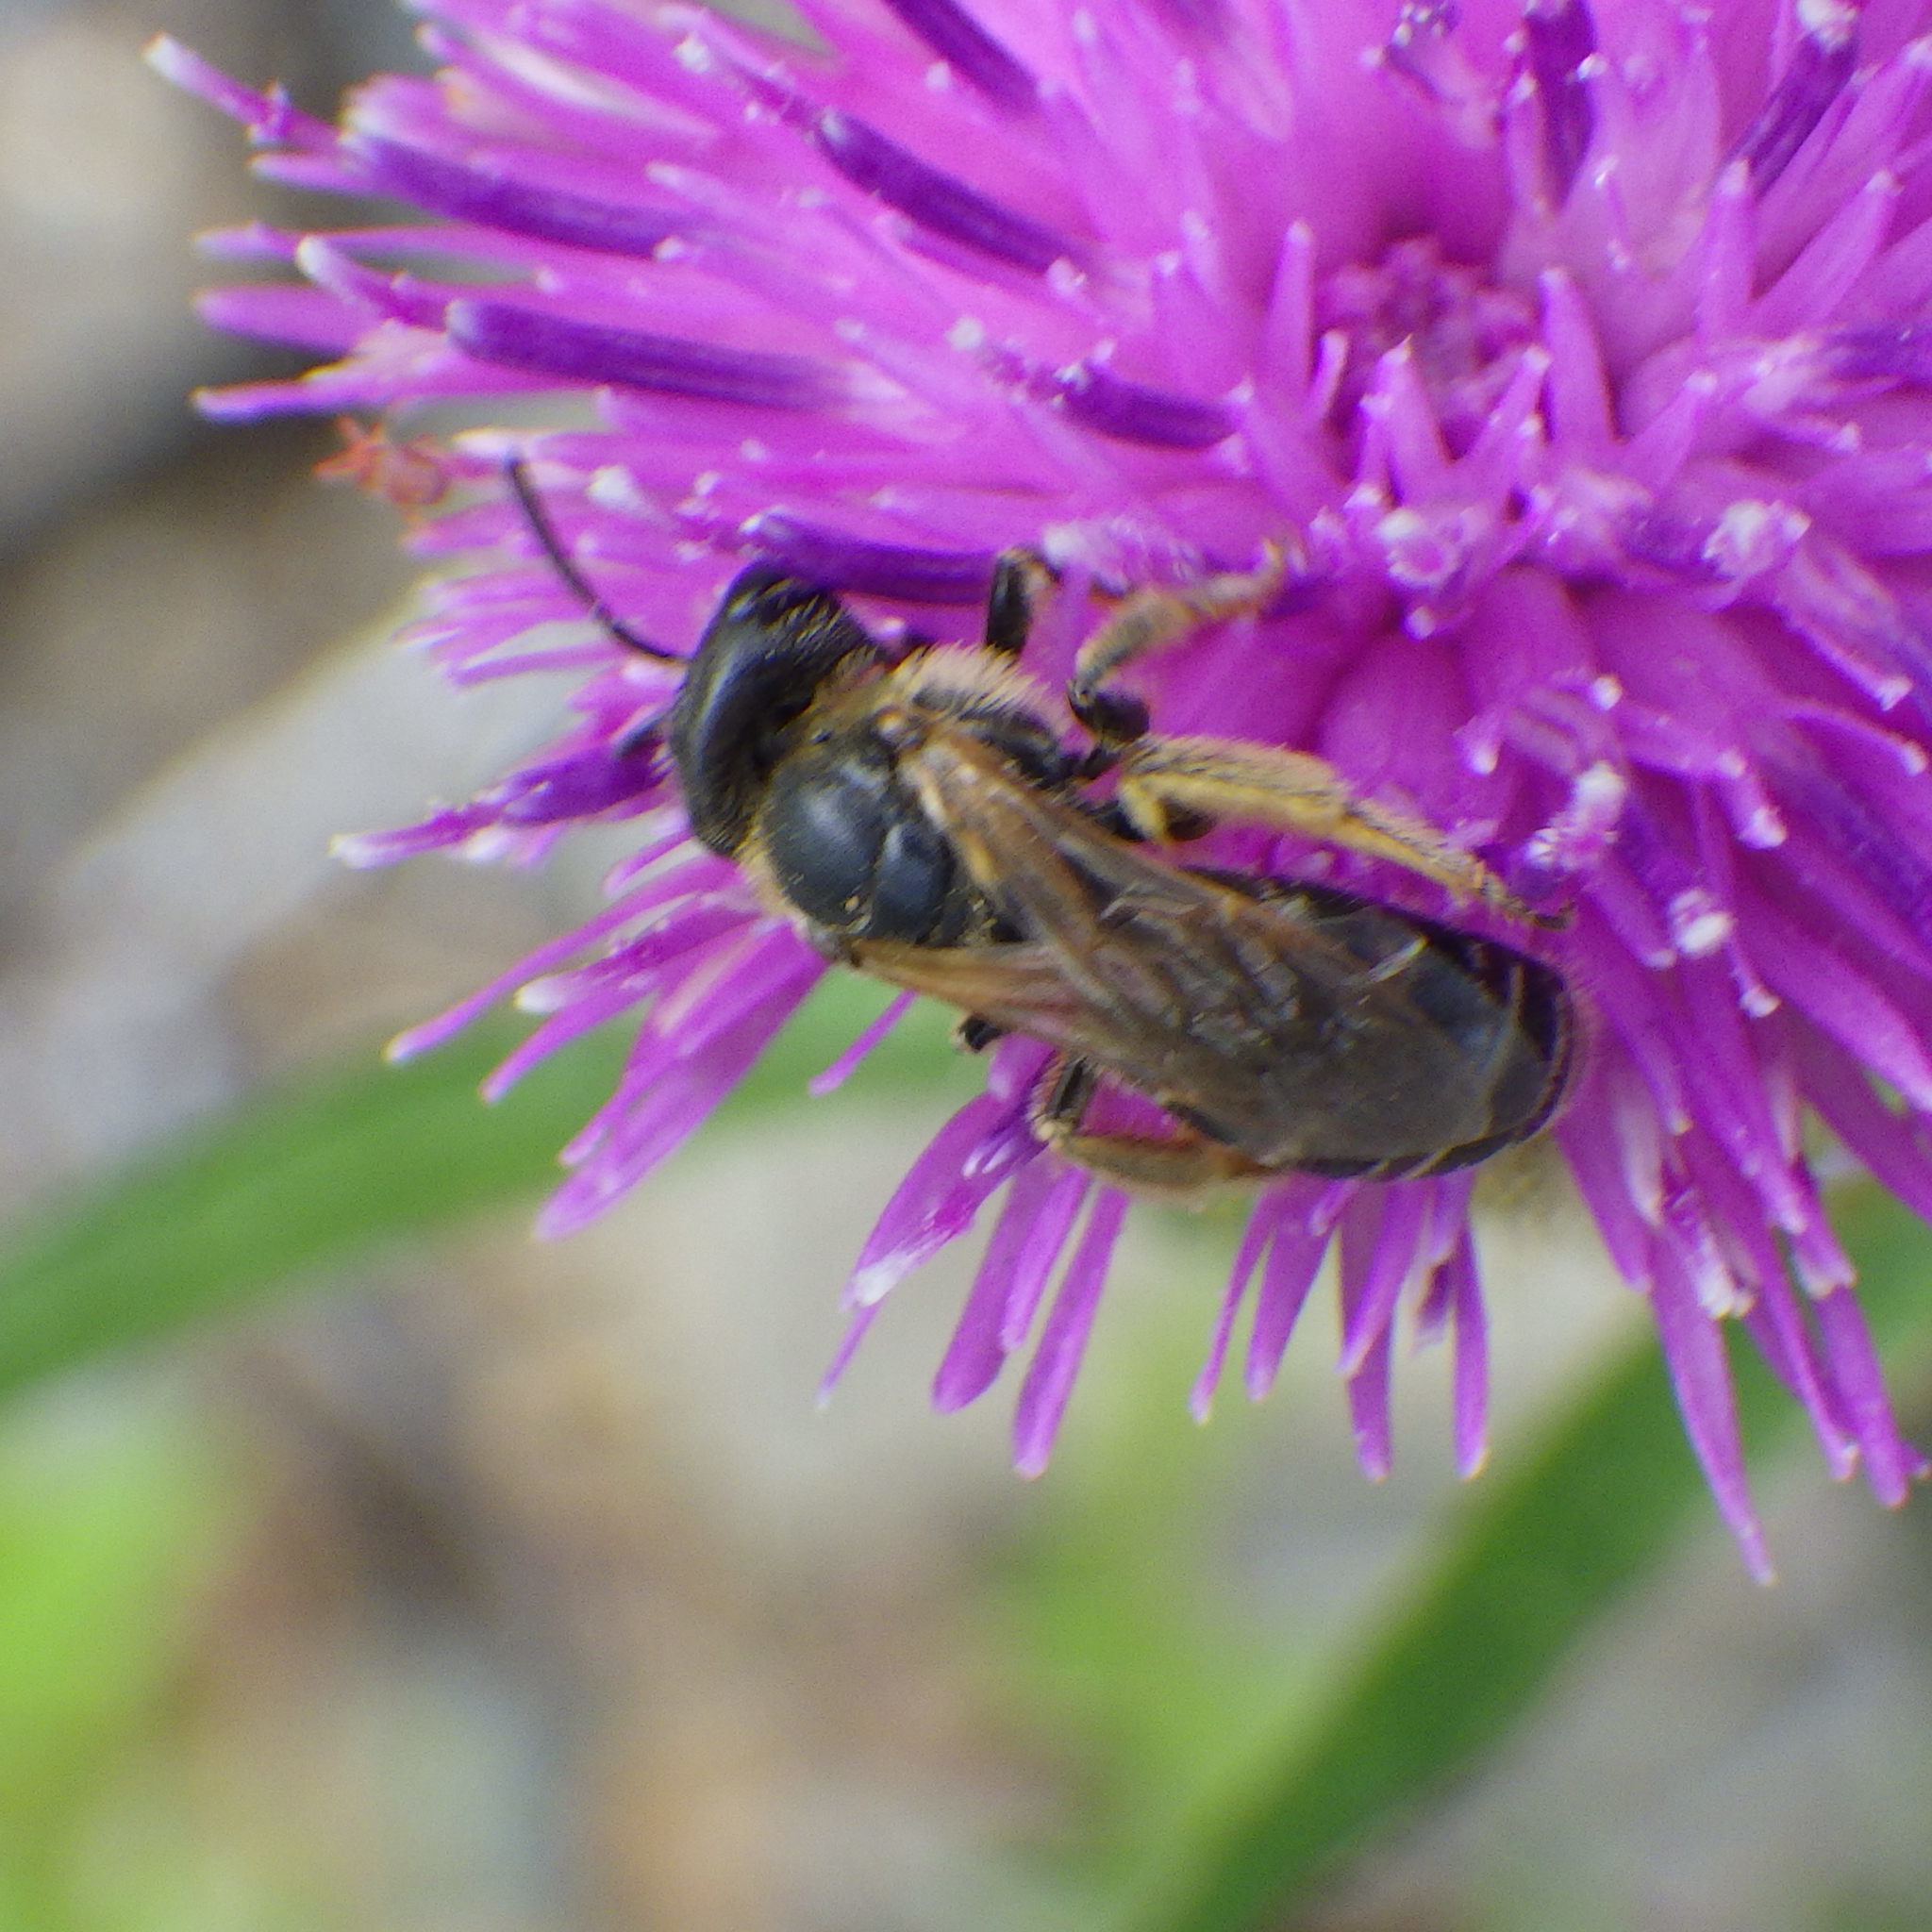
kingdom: Animalia
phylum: Arthropoda
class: Insecta
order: Hymenoptera
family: Halictidae
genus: Halictus
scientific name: Halictus ligatus
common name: Ligated furrow bee
